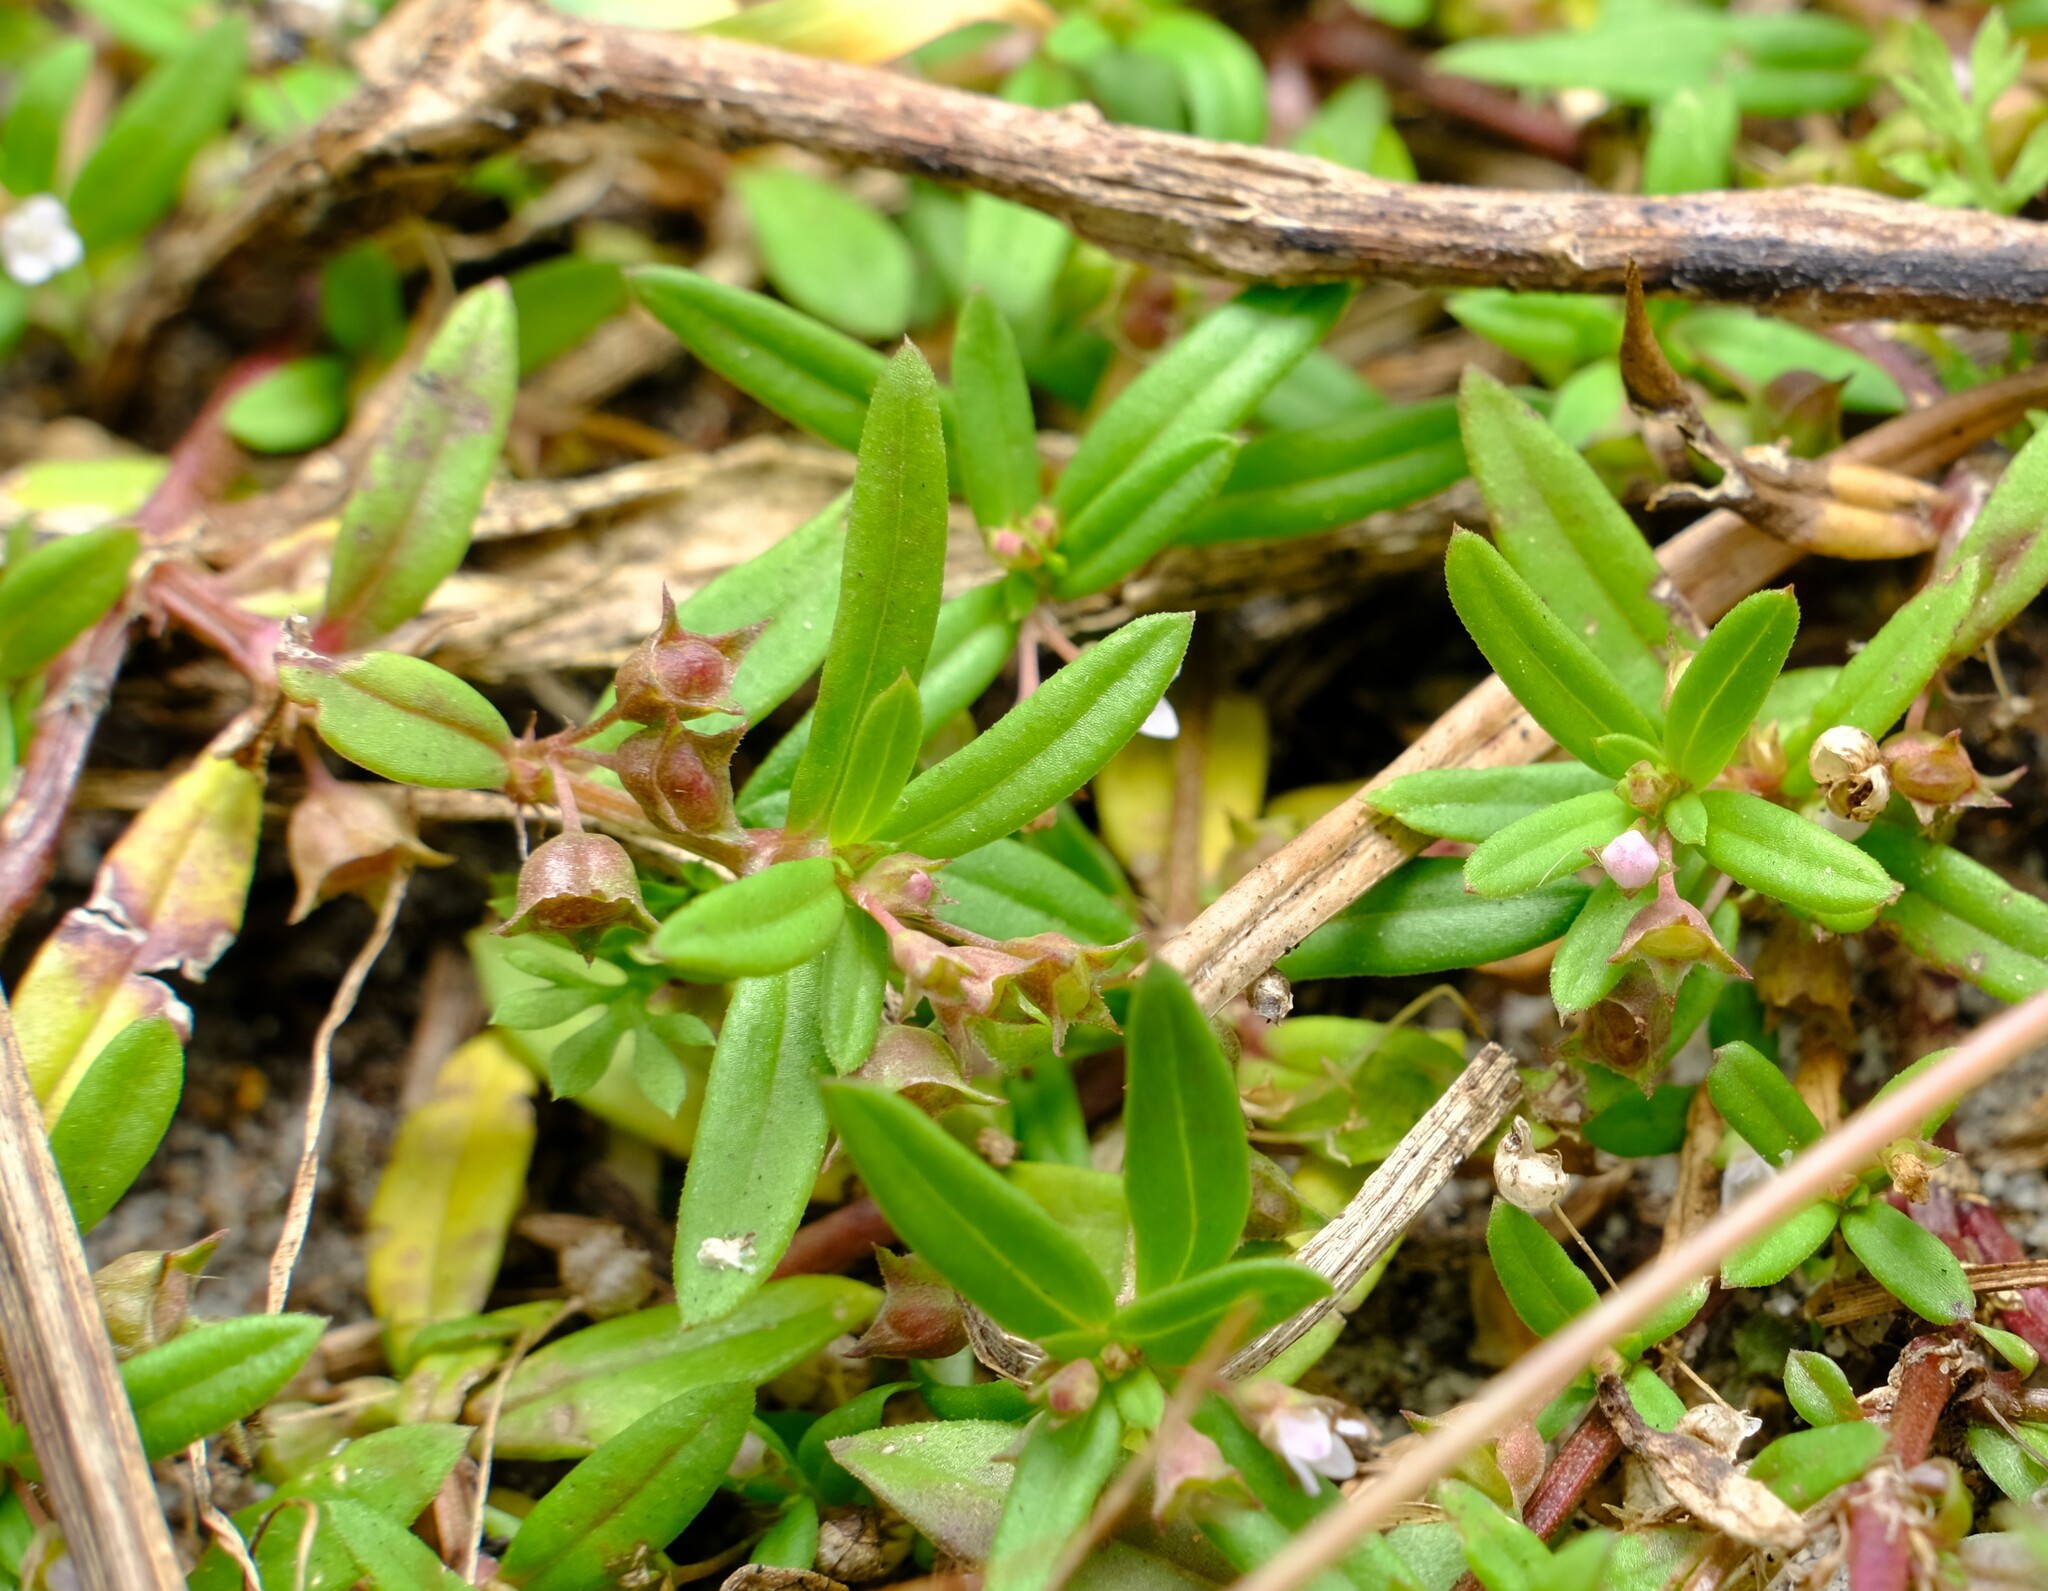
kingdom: Plantae
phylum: Tracheophyta
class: Magnoliopsida
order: Gentianales
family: Rubiaceae
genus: Oldenlandia
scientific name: Oldenlandia corymbosa
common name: Flat-top mille graines
